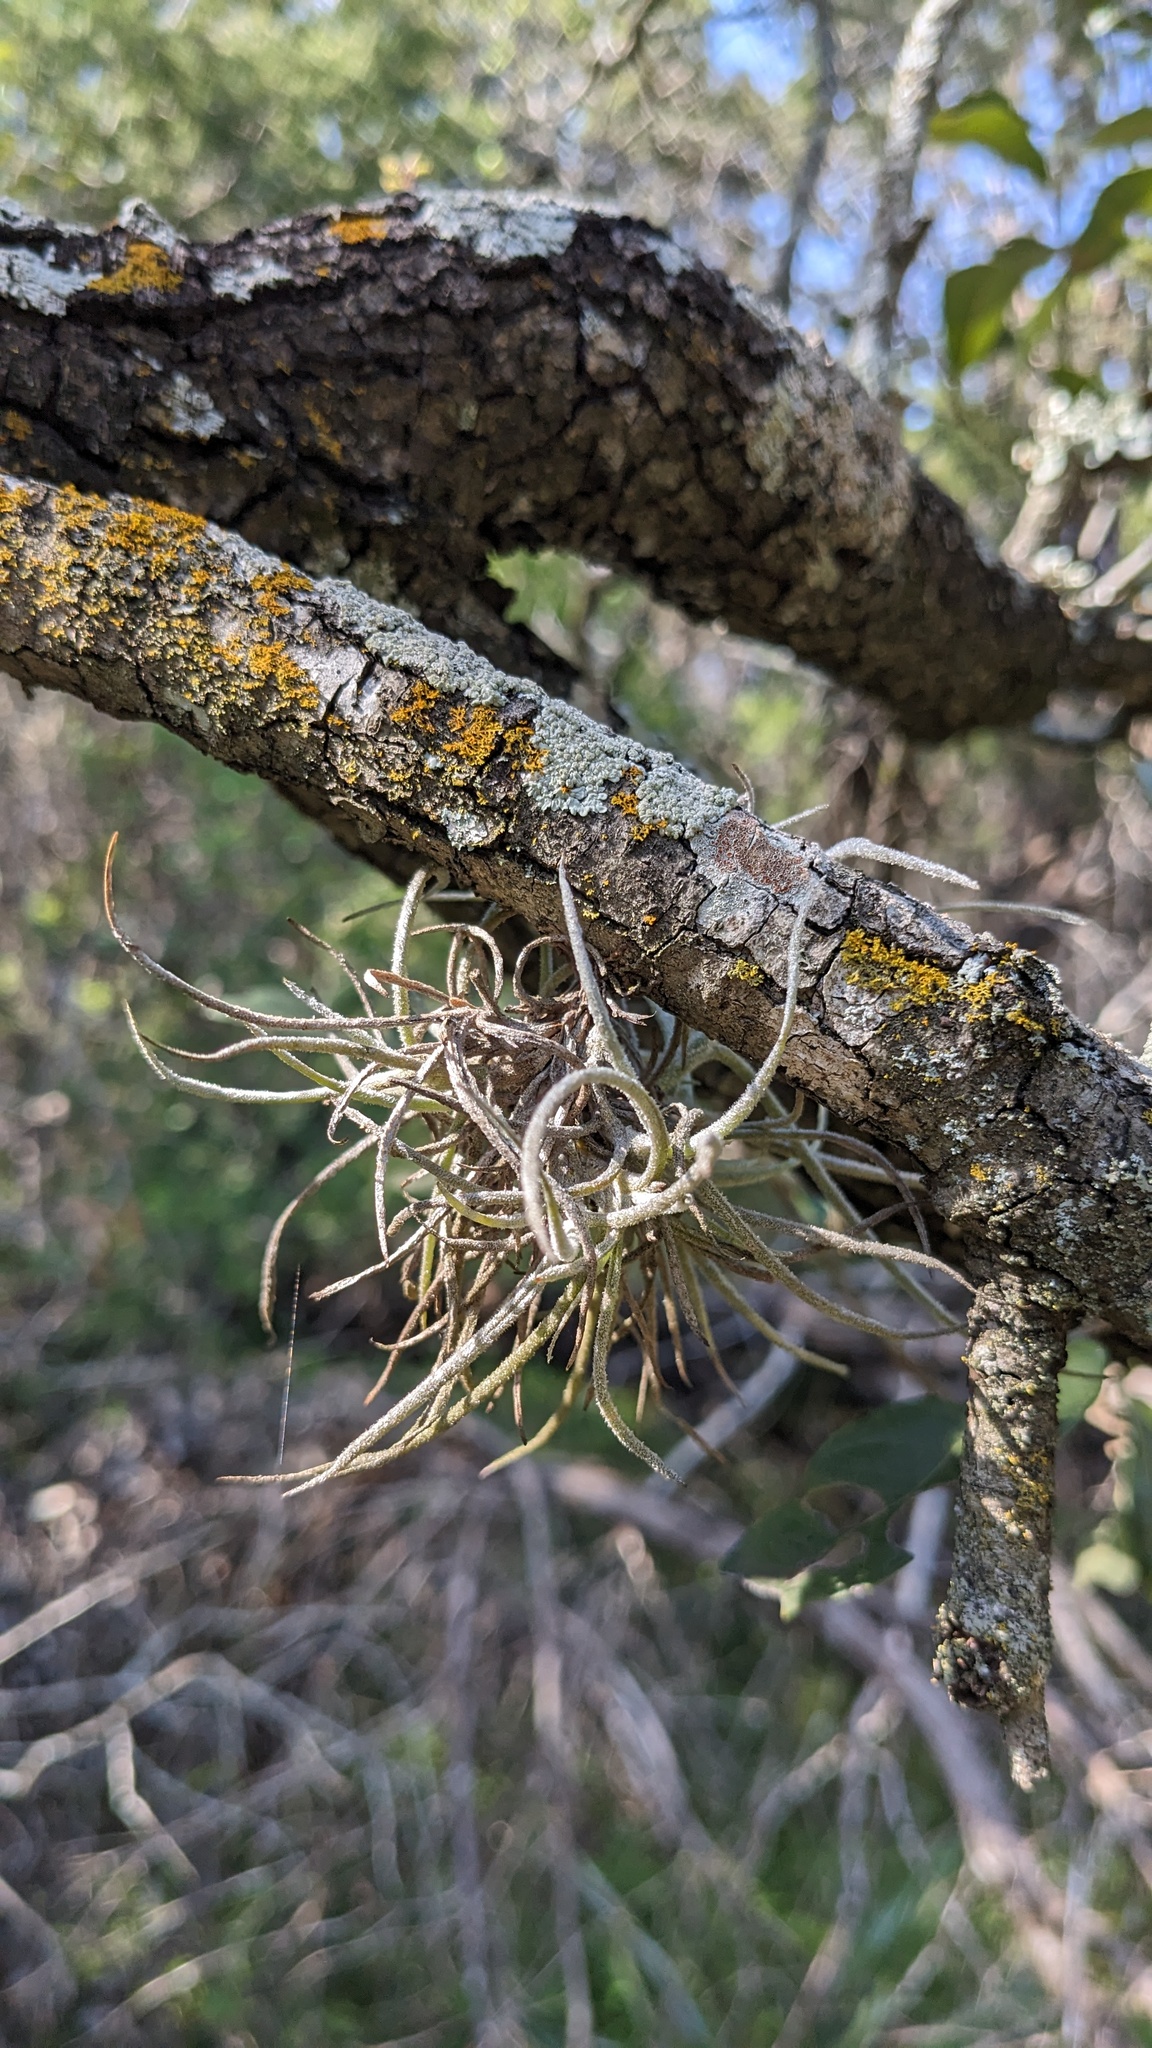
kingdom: Plantae
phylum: Tracheophyta
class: Liliopsida
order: Poales
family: Bromeliaceae
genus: Tillandsia
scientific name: Tillandsia recurvata
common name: Small ballmoss
